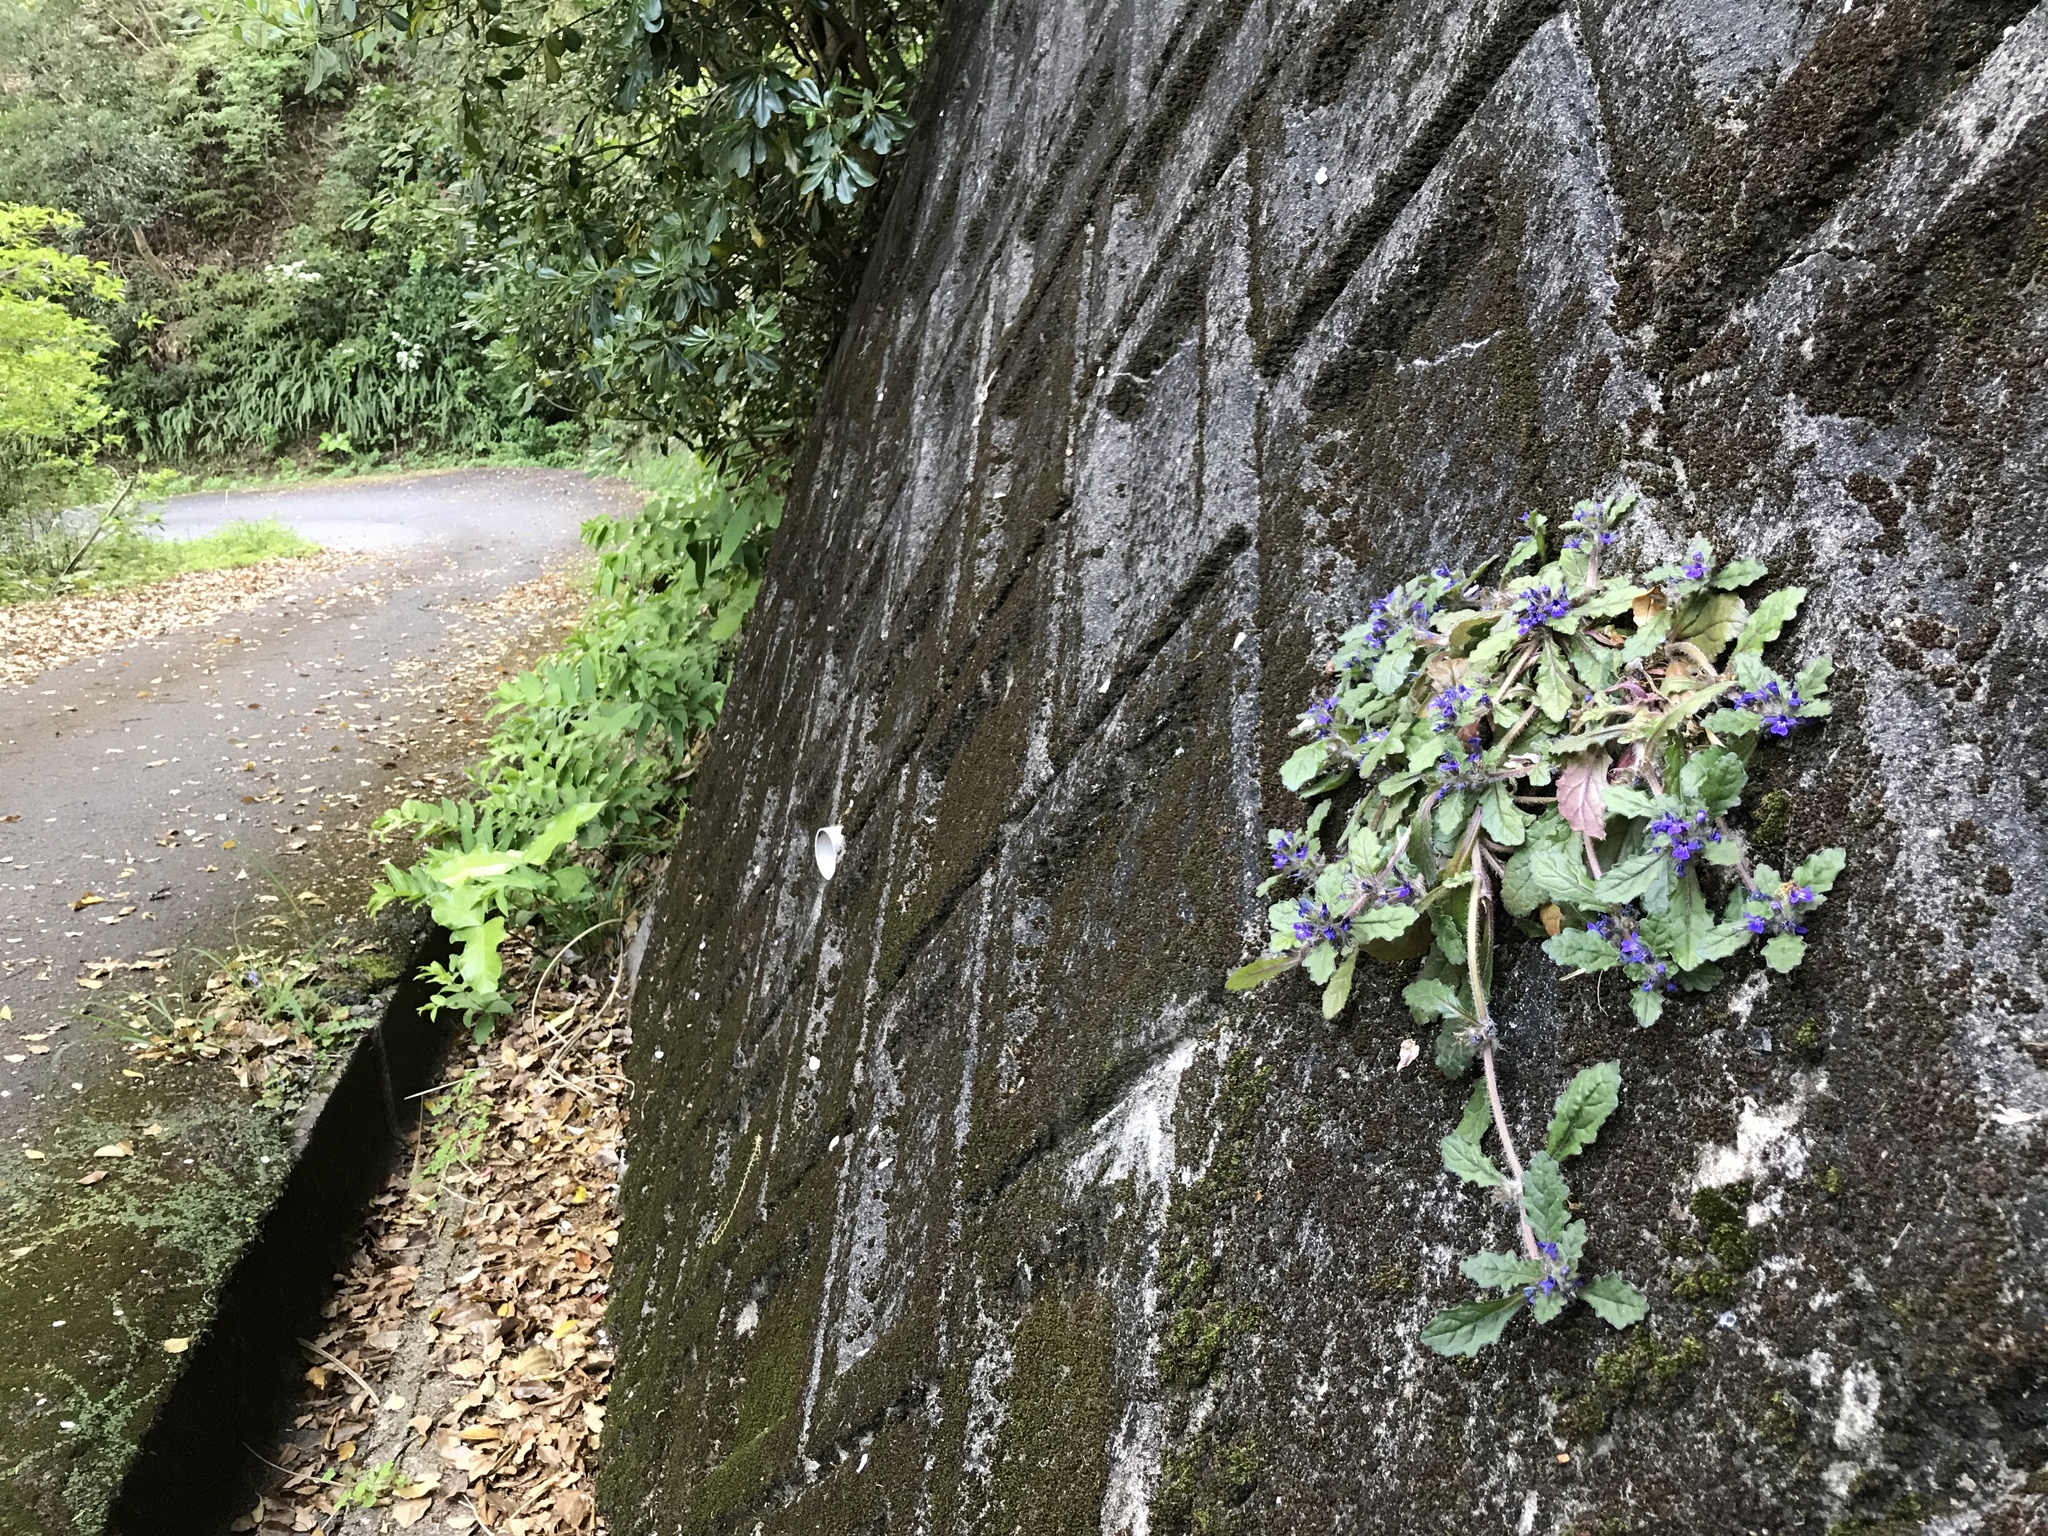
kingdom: Plantae
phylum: Tracheophyta
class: Magnoliopsida
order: Lamiales
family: Lamiaceae
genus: Ajuga
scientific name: Ajuga decumbens
